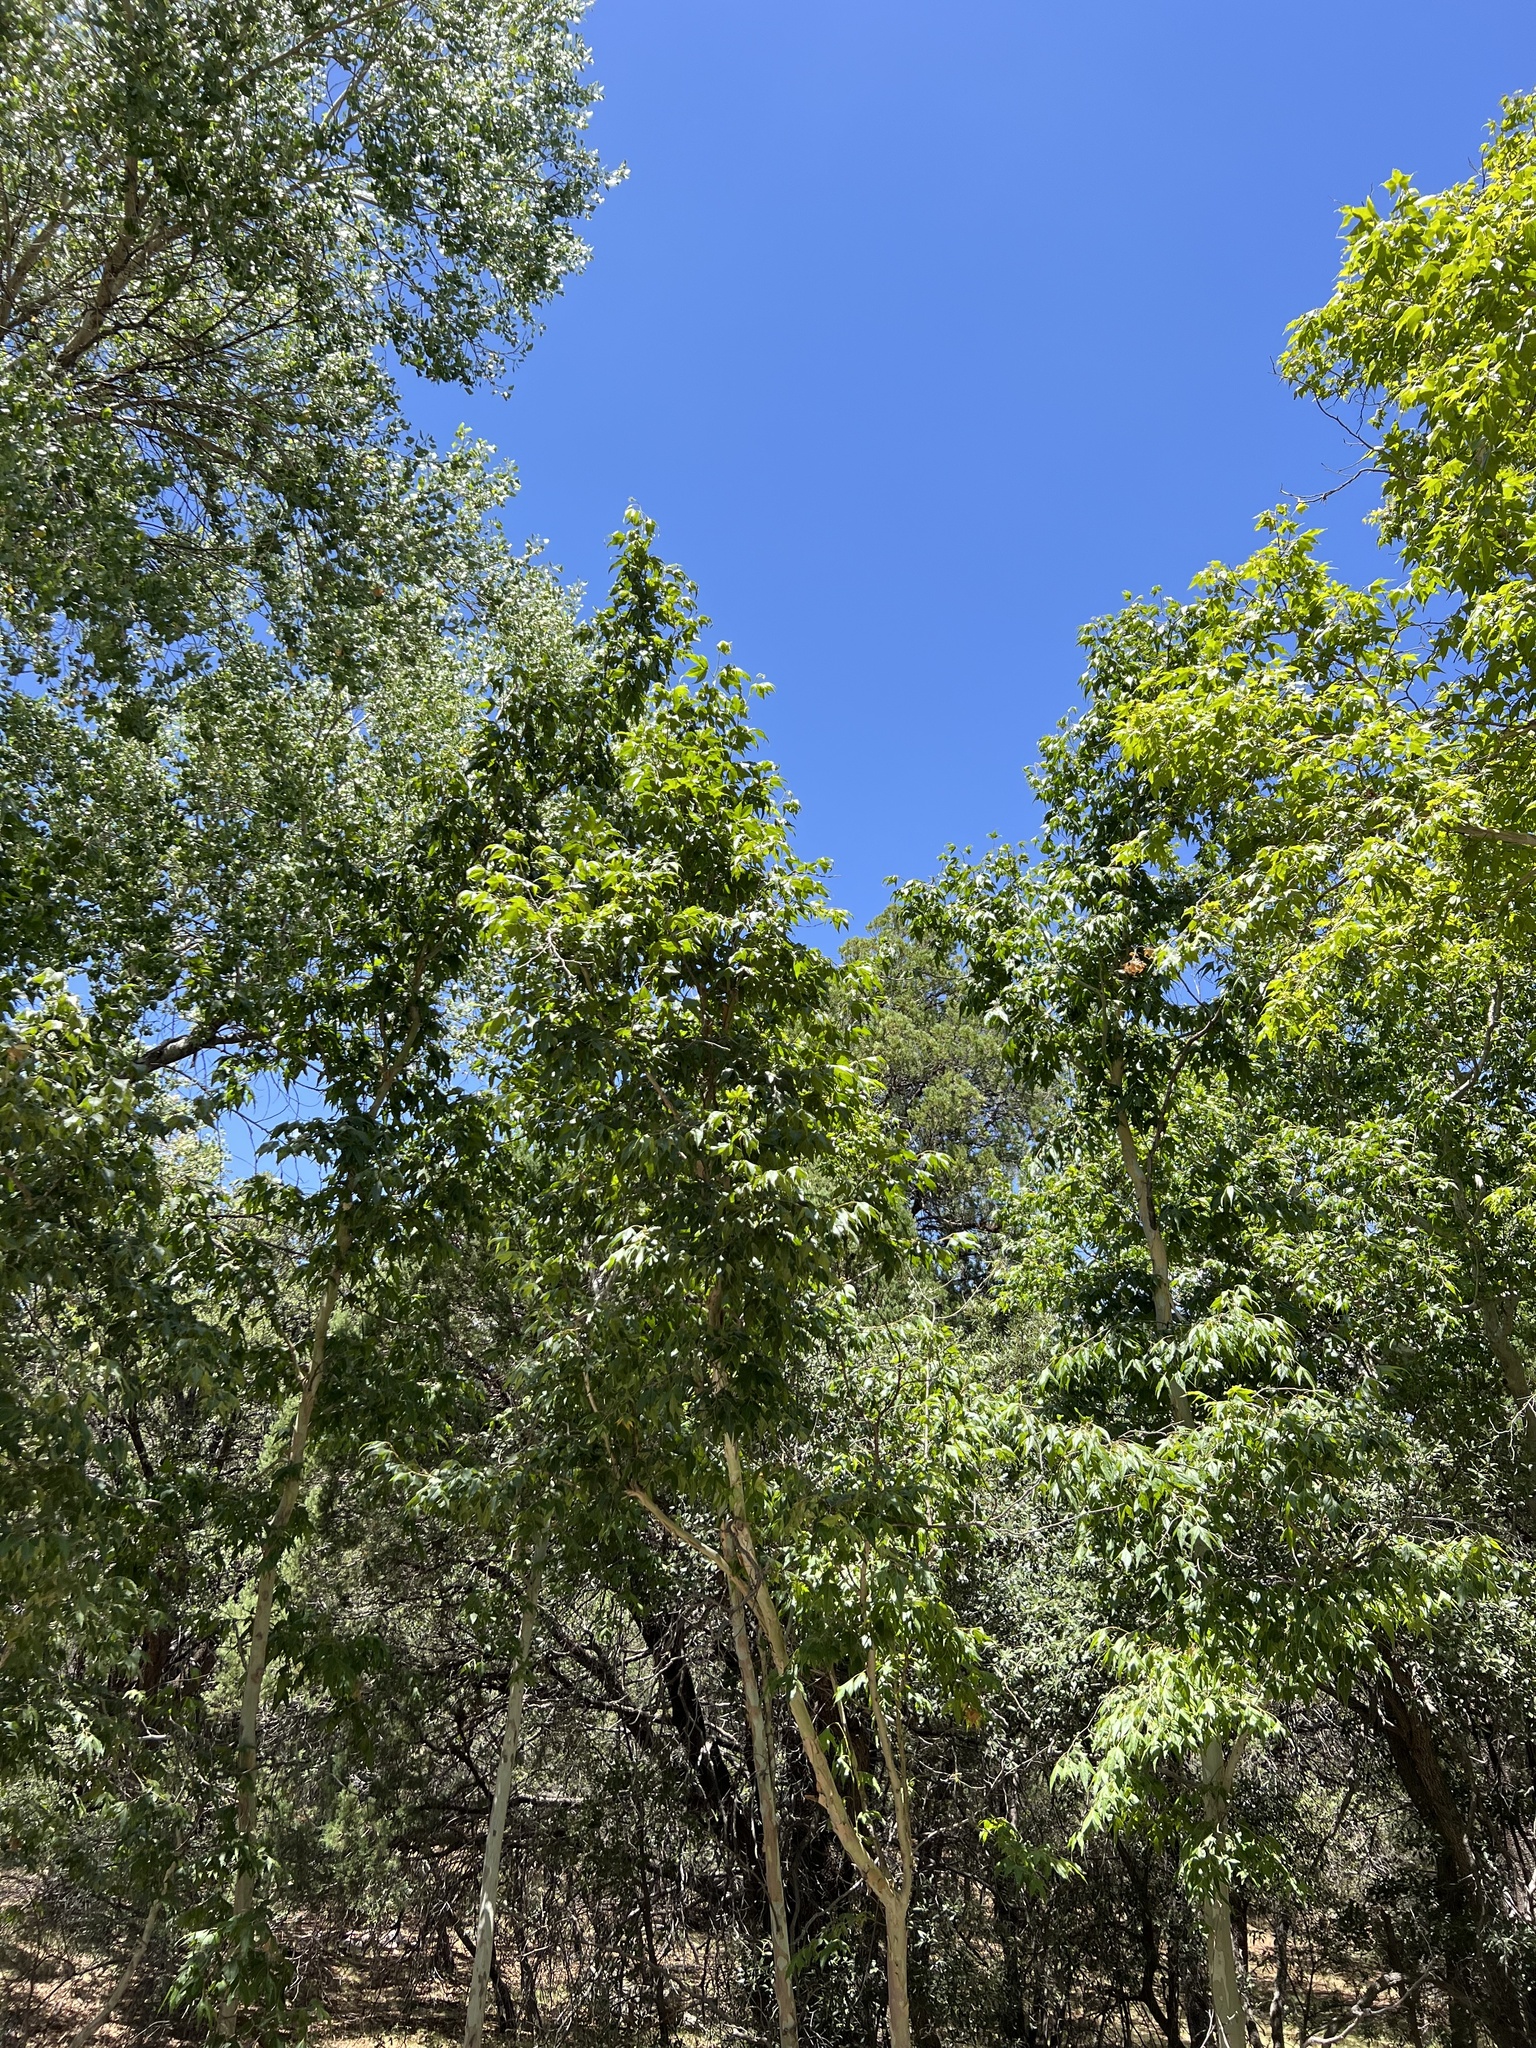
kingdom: Plantae
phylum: Tracheophyta
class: Magnoliopsida
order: Proteales
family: Platanaceae
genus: Platanus
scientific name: Platanus wrightii
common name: Arizona sycamore
